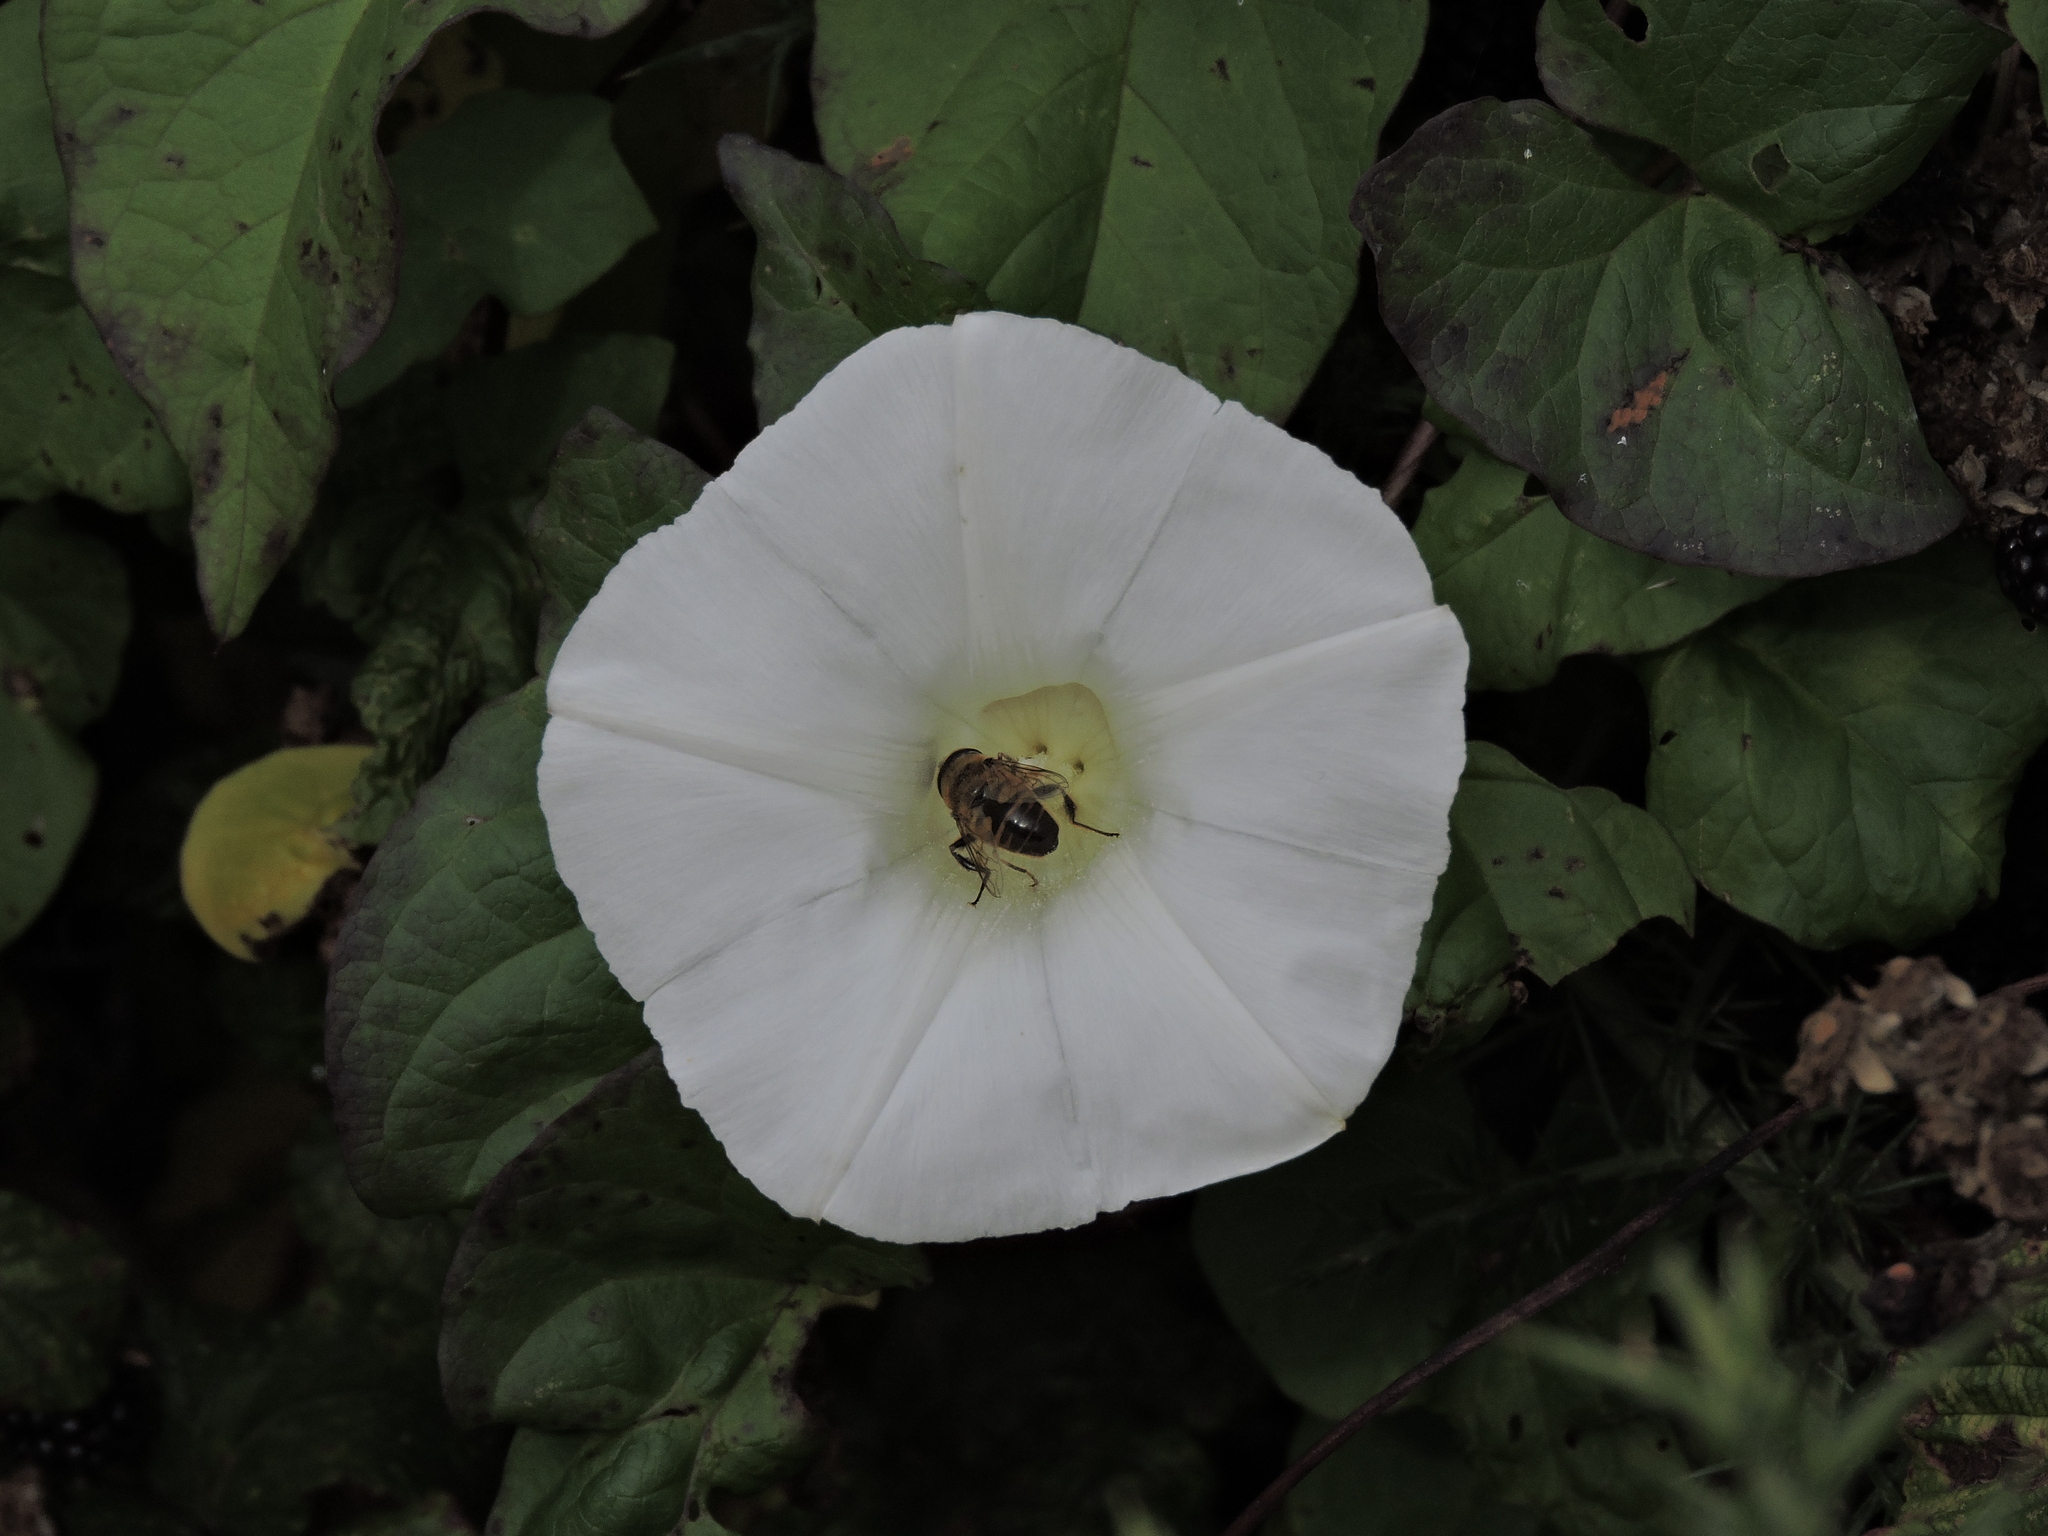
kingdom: Animalia
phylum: Arthropoda
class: Insecta
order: Diptera
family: Syrphidae
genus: Eristalis
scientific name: Eristalis tenax
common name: Drone fly
